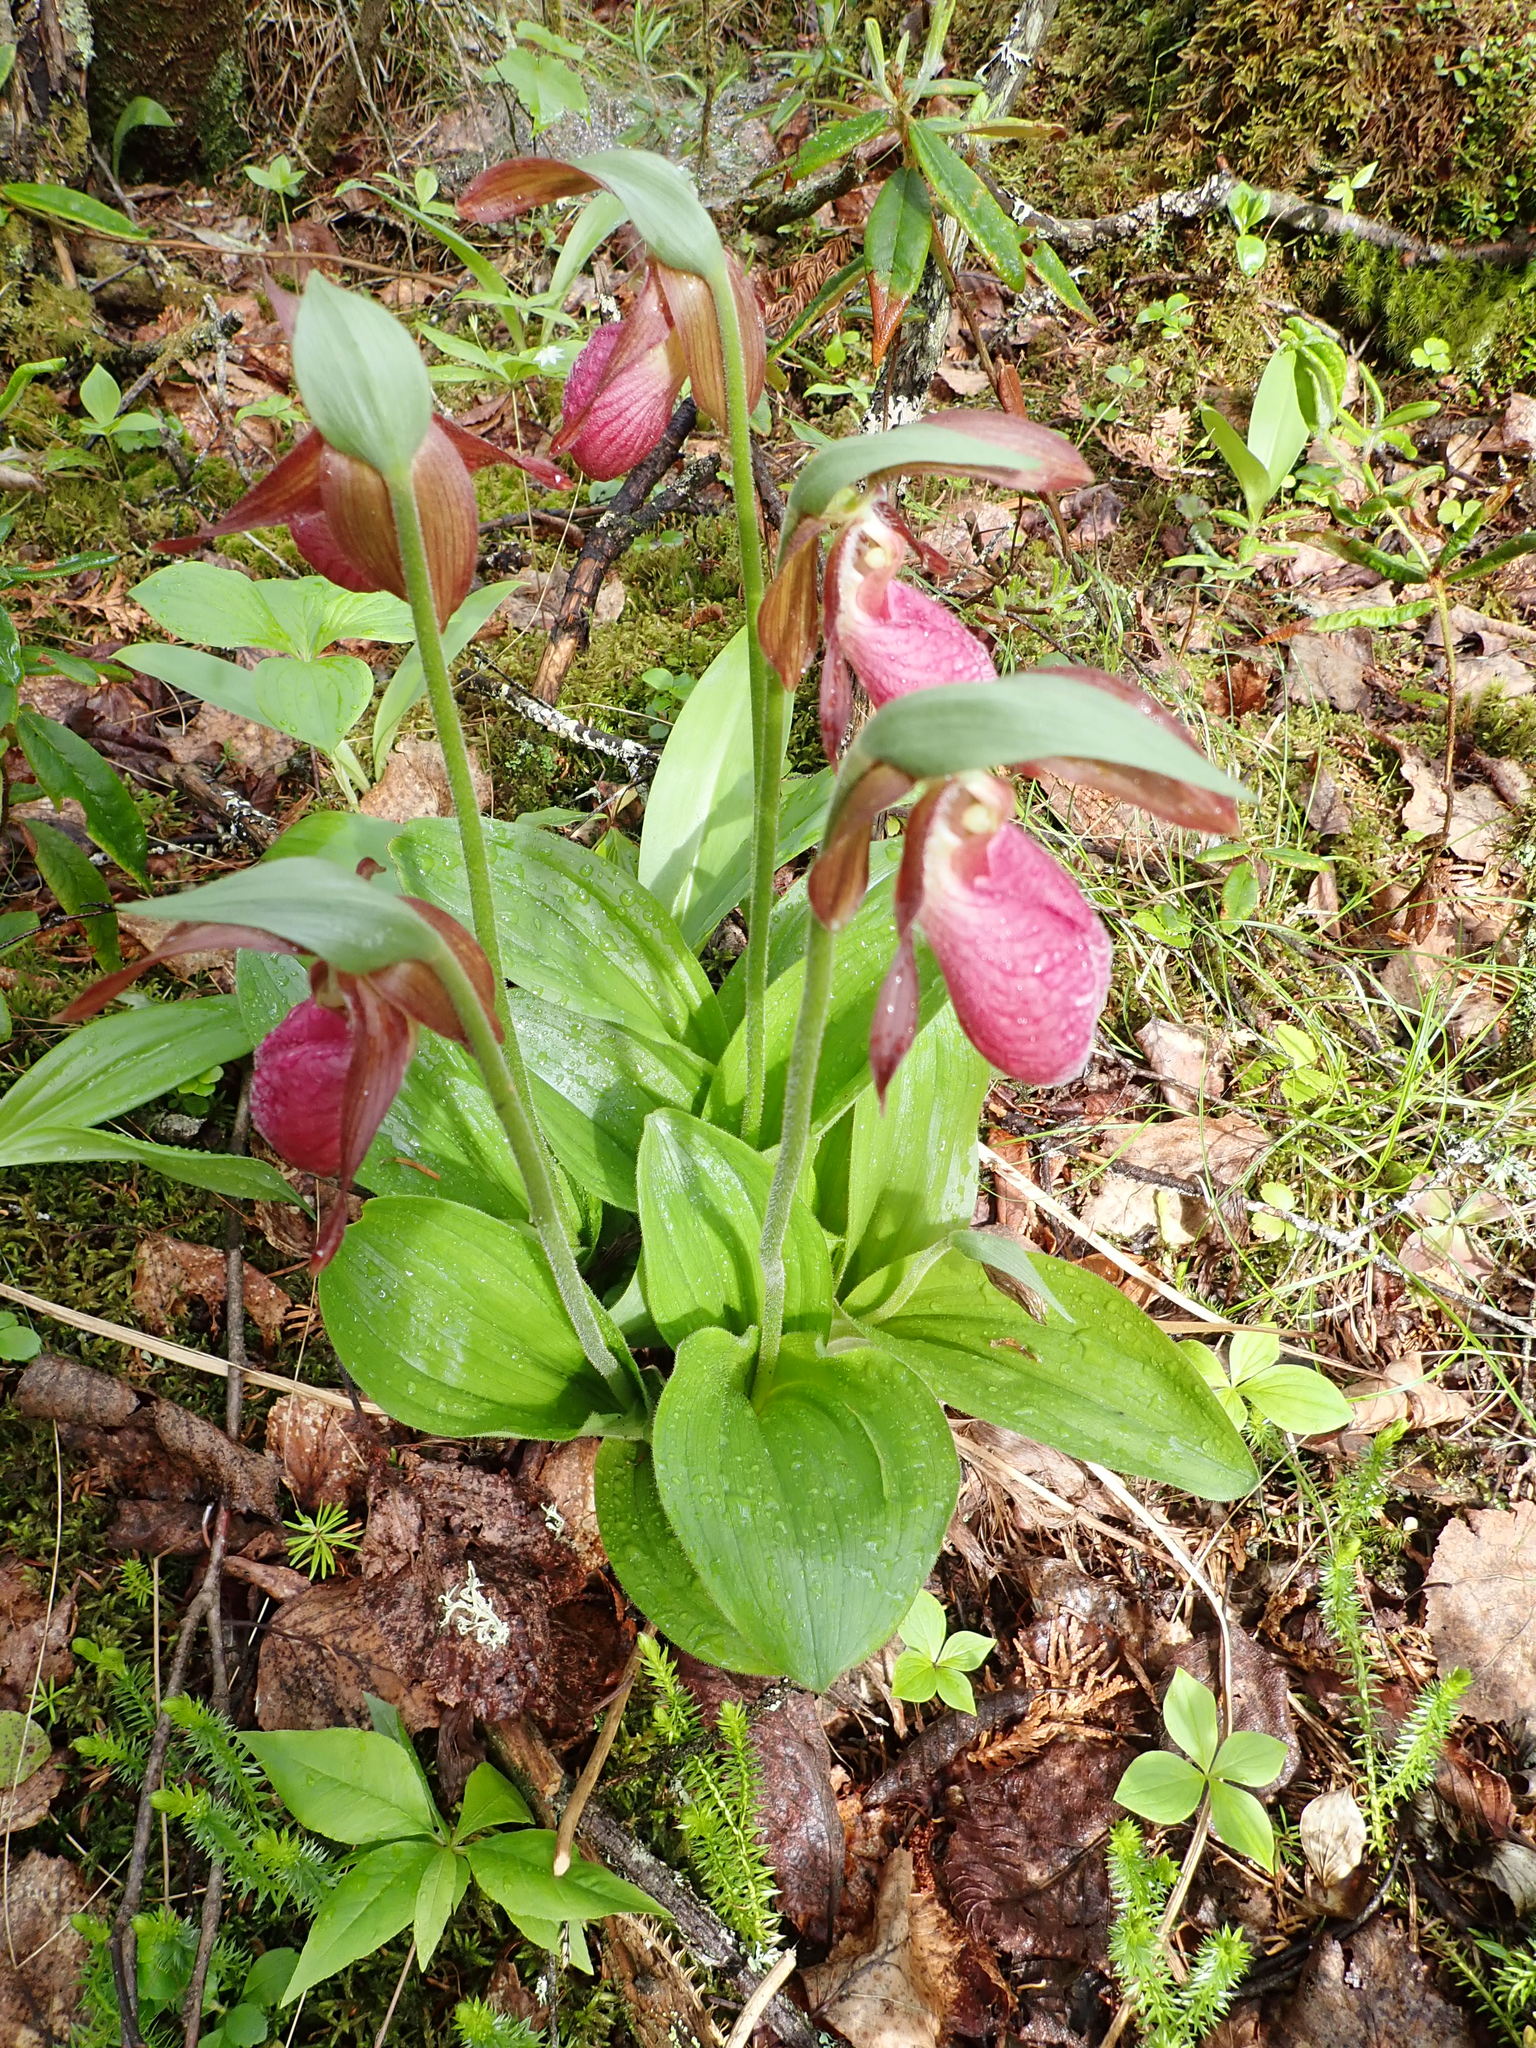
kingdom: Plantae
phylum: Tracheophyta
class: Liliopsida
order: Asparagales
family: Orchidaceae
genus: Cypripedium
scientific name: Cypripedium acaule
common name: Pink lady's-slipper
